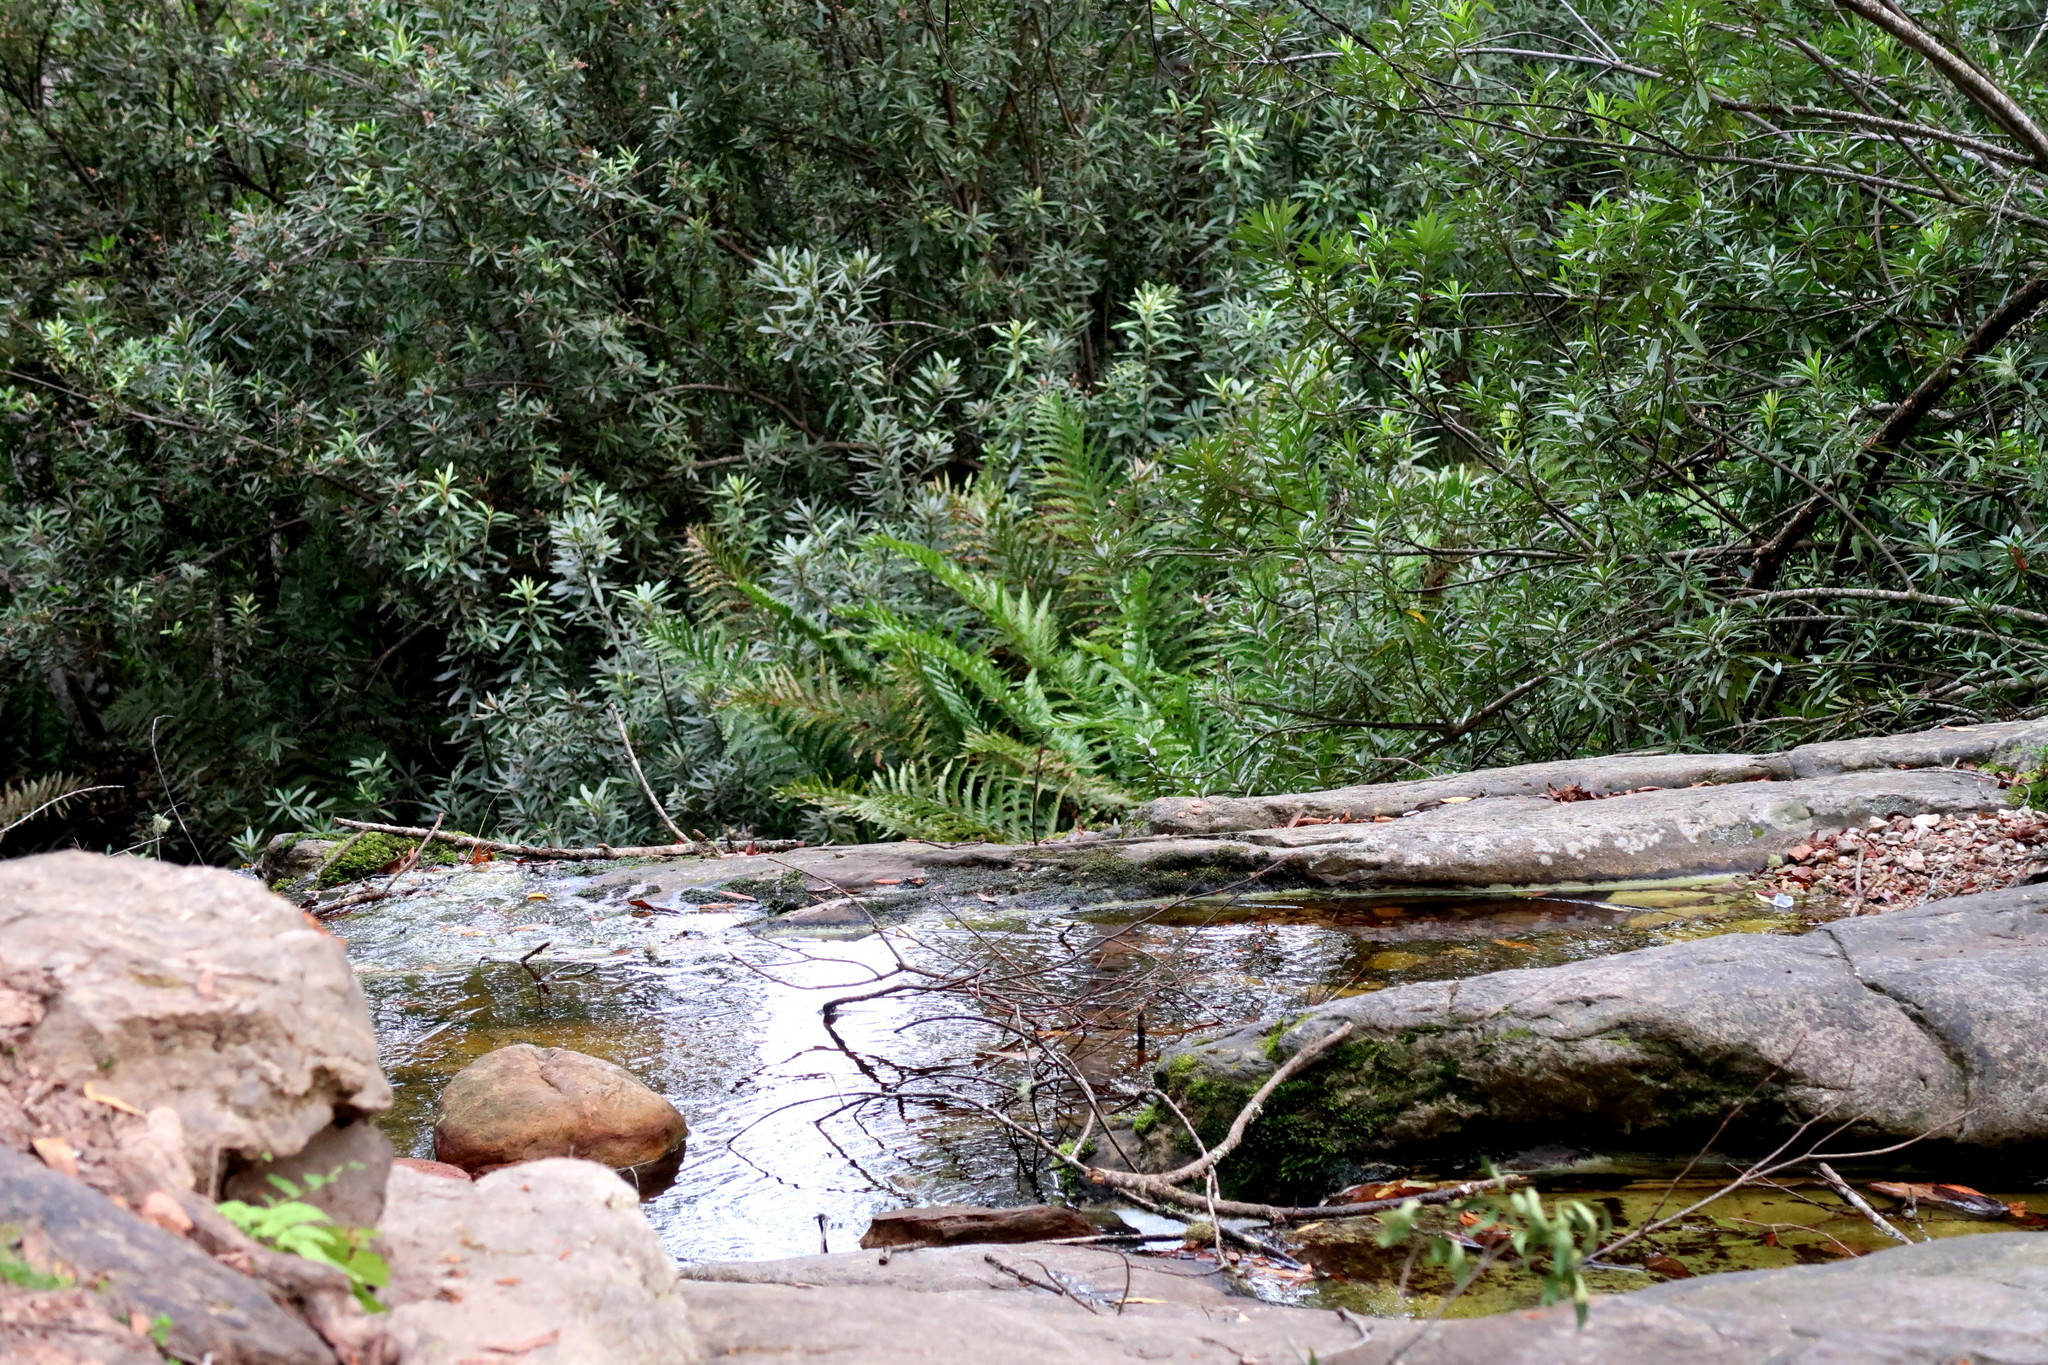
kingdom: Plantae
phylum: Tracheophyta
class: Magnoliopsida
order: Asterales
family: Asteraceae
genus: Brachylaena
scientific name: Brachylaena neriifolia
